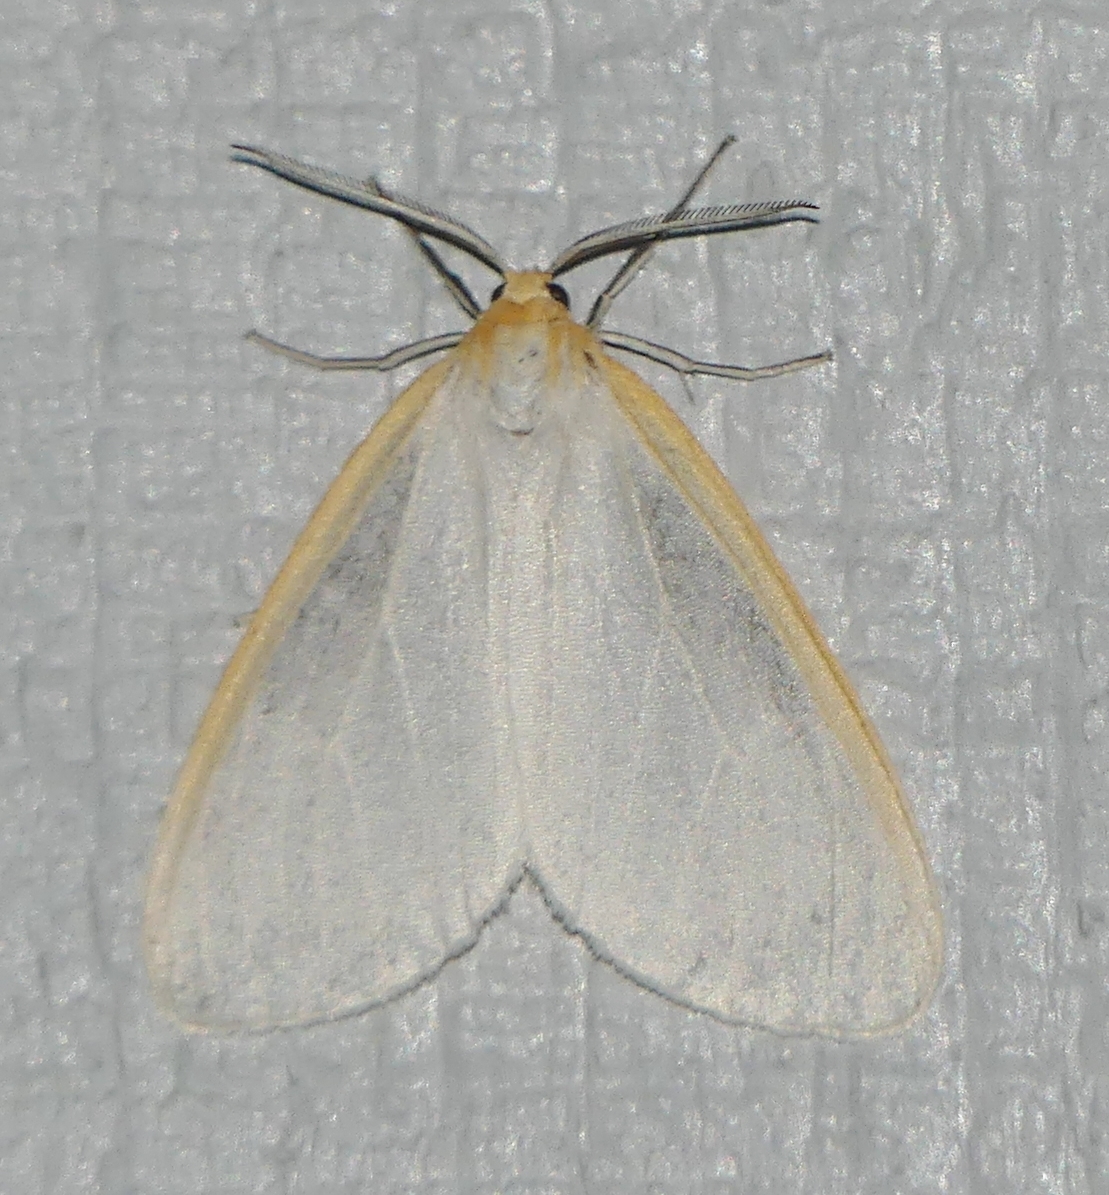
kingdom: Animalia
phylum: Arthropoda
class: Insecta
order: Lepidoptera
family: Erebidae
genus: Cycnia
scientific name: Cycnia tenera
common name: Delicate cycnia moth
